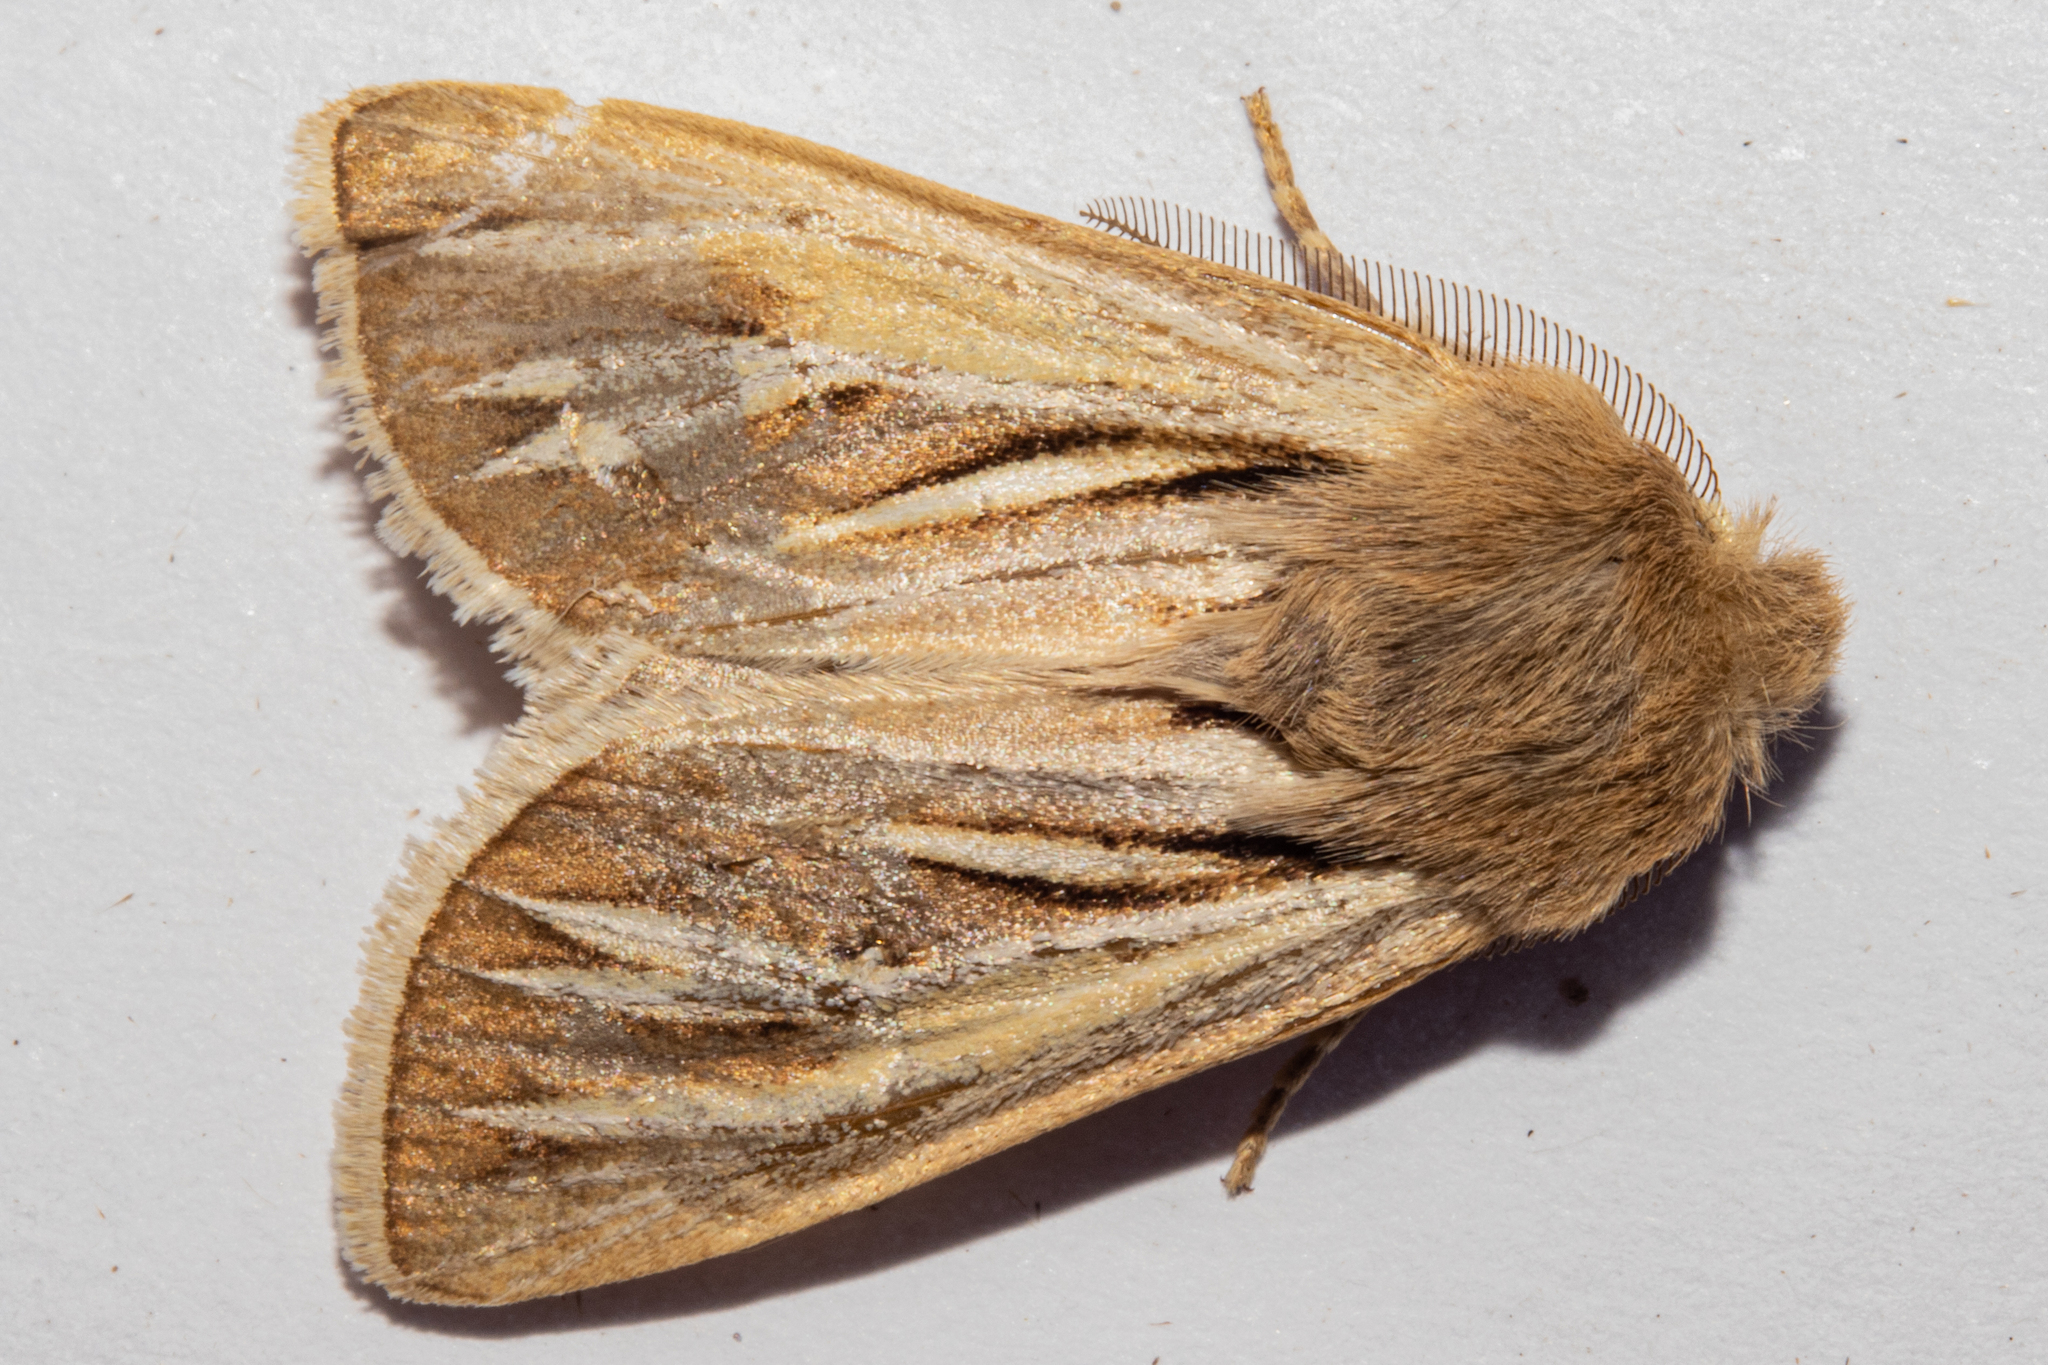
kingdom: Animalia
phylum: Arthropoda
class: Insecta
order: Lepidoptera
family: Noctuidae
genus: Ichneutica
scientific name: Ichneutica caraunias
